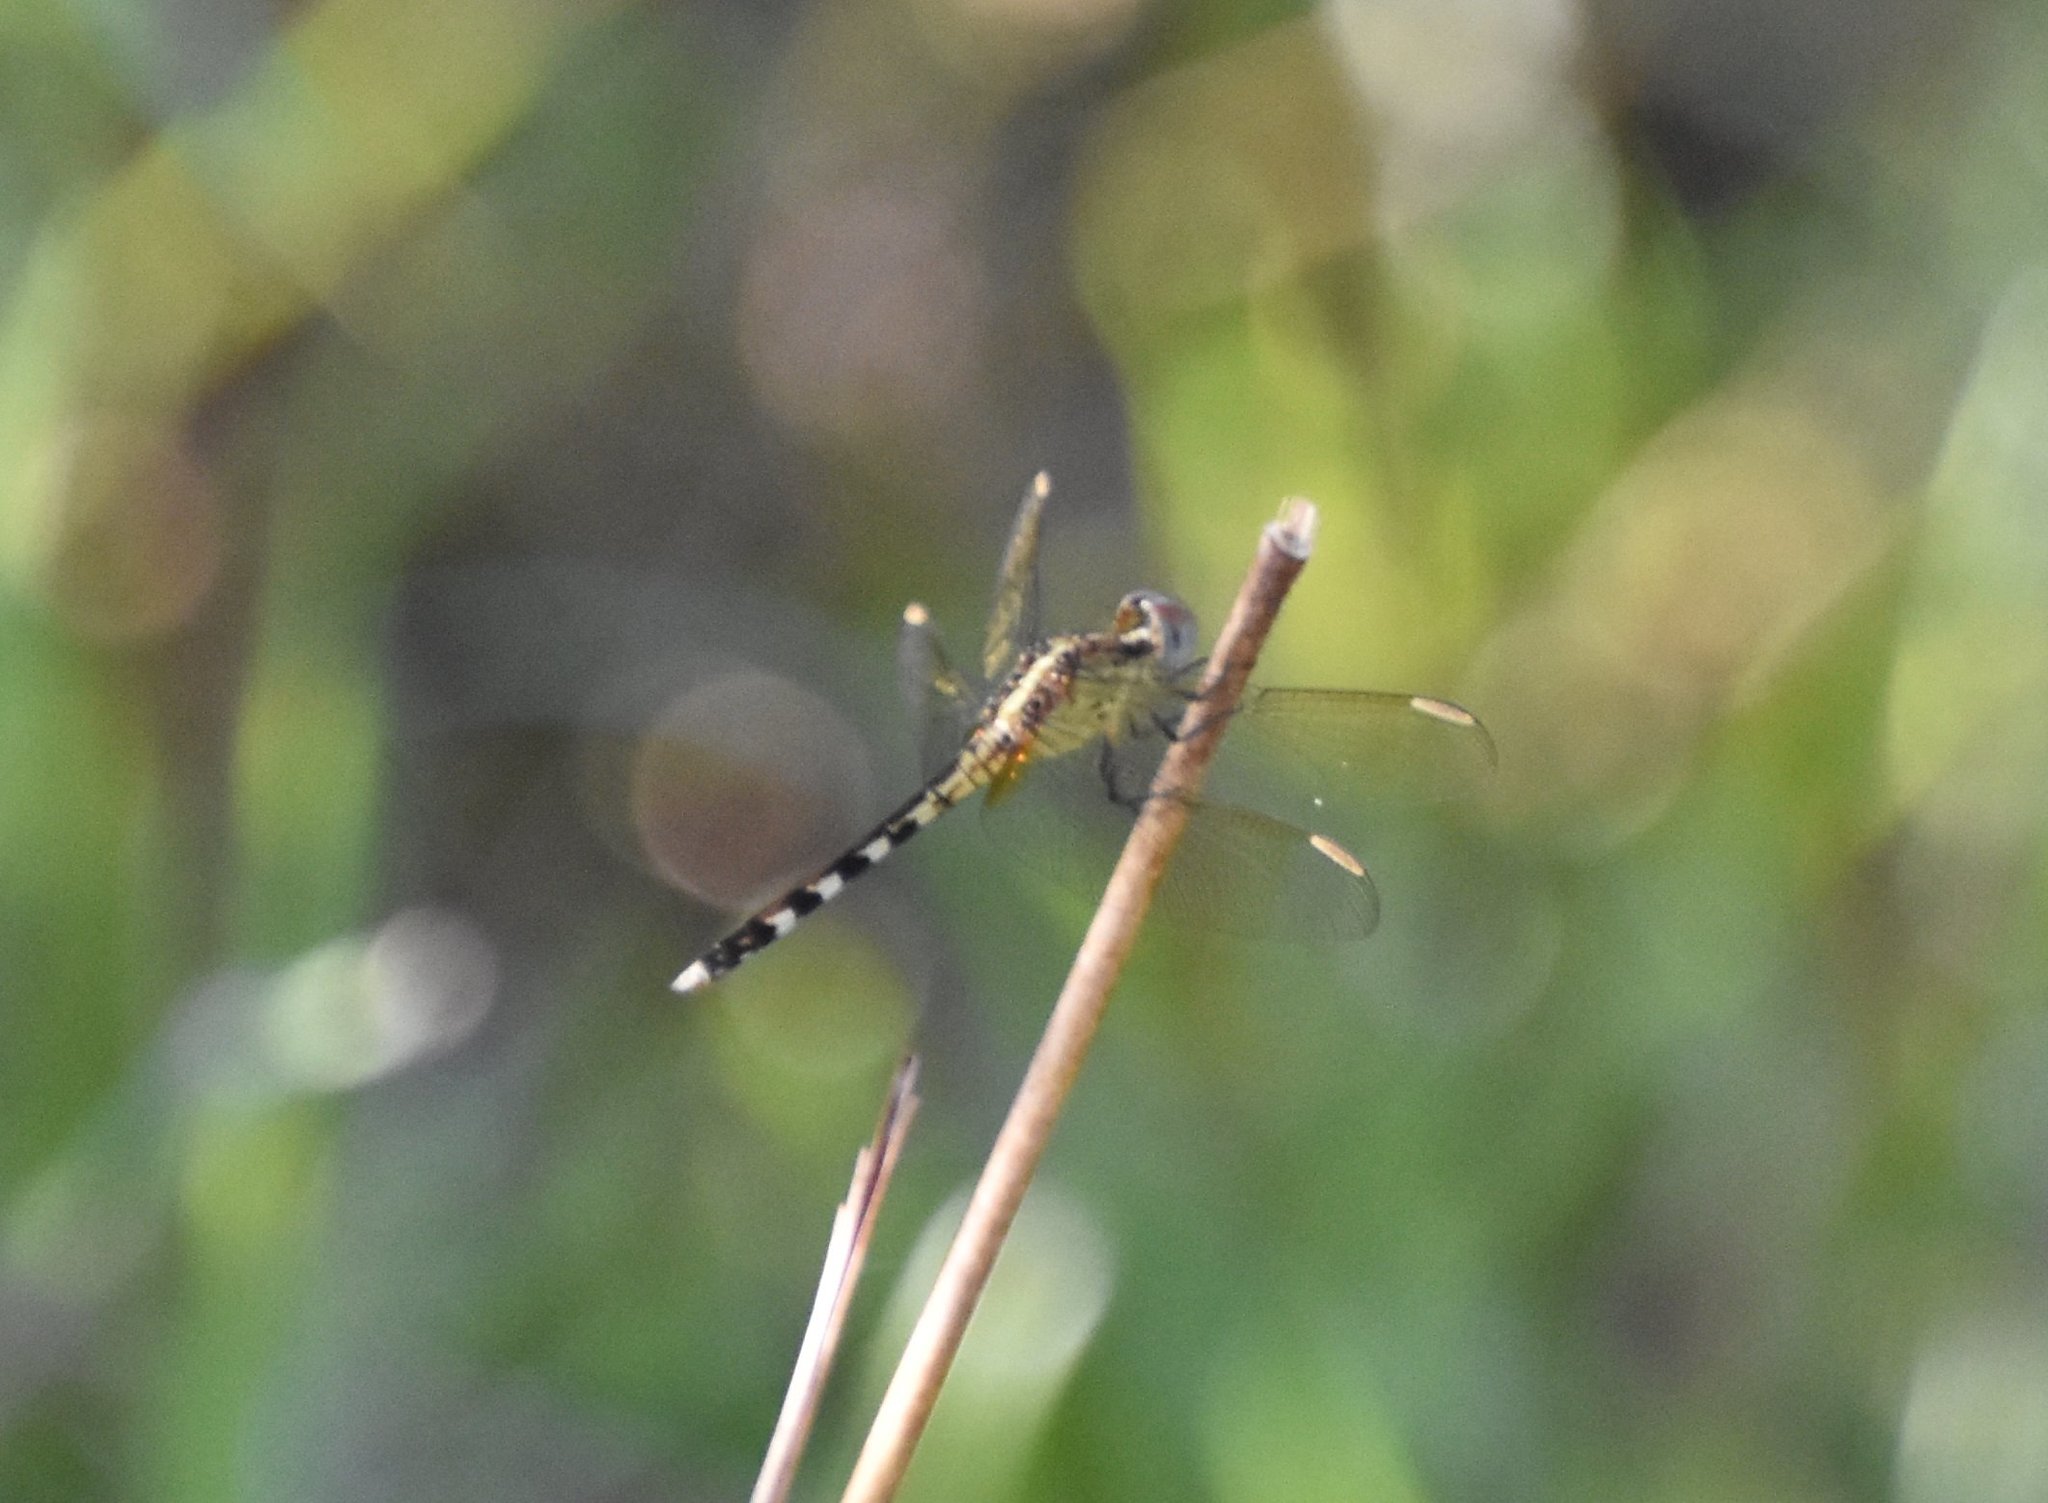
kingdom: Animalia
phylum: Arthropoda
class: Insecta
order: Odonata
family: Libellulidae
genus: Erythrodiplax
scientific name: Erythrodiplax umbrata
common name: Band-winged dragonlet
